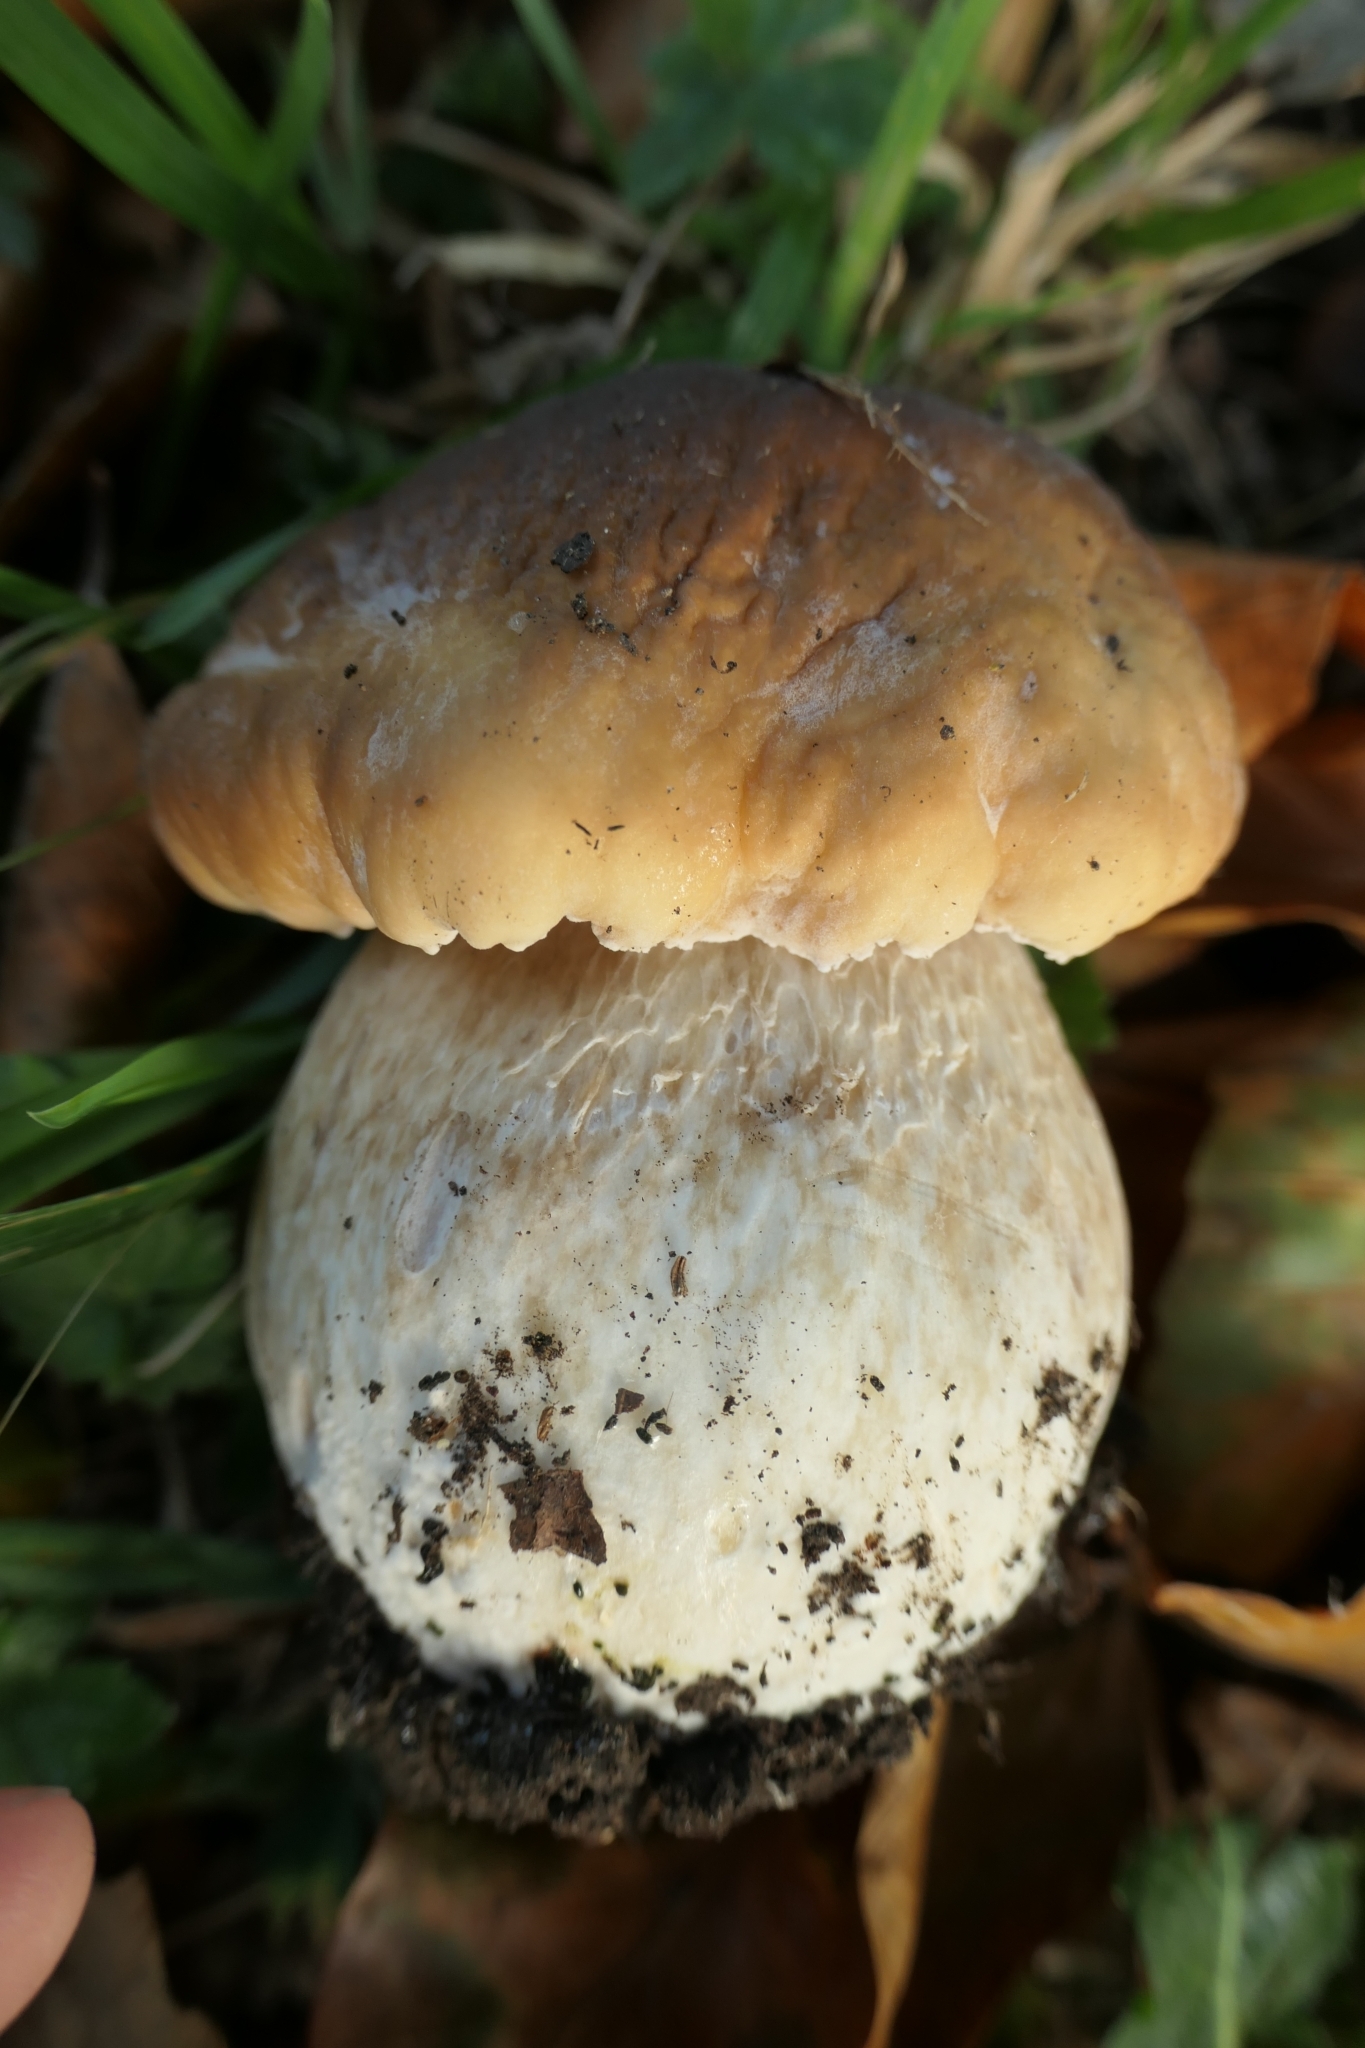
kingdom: Fungi
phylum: Basidiomycota
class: Agaricomycetes
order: Boletales
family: Boletaceae
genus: Boletus
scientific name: Boletus edulis
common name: Cep
